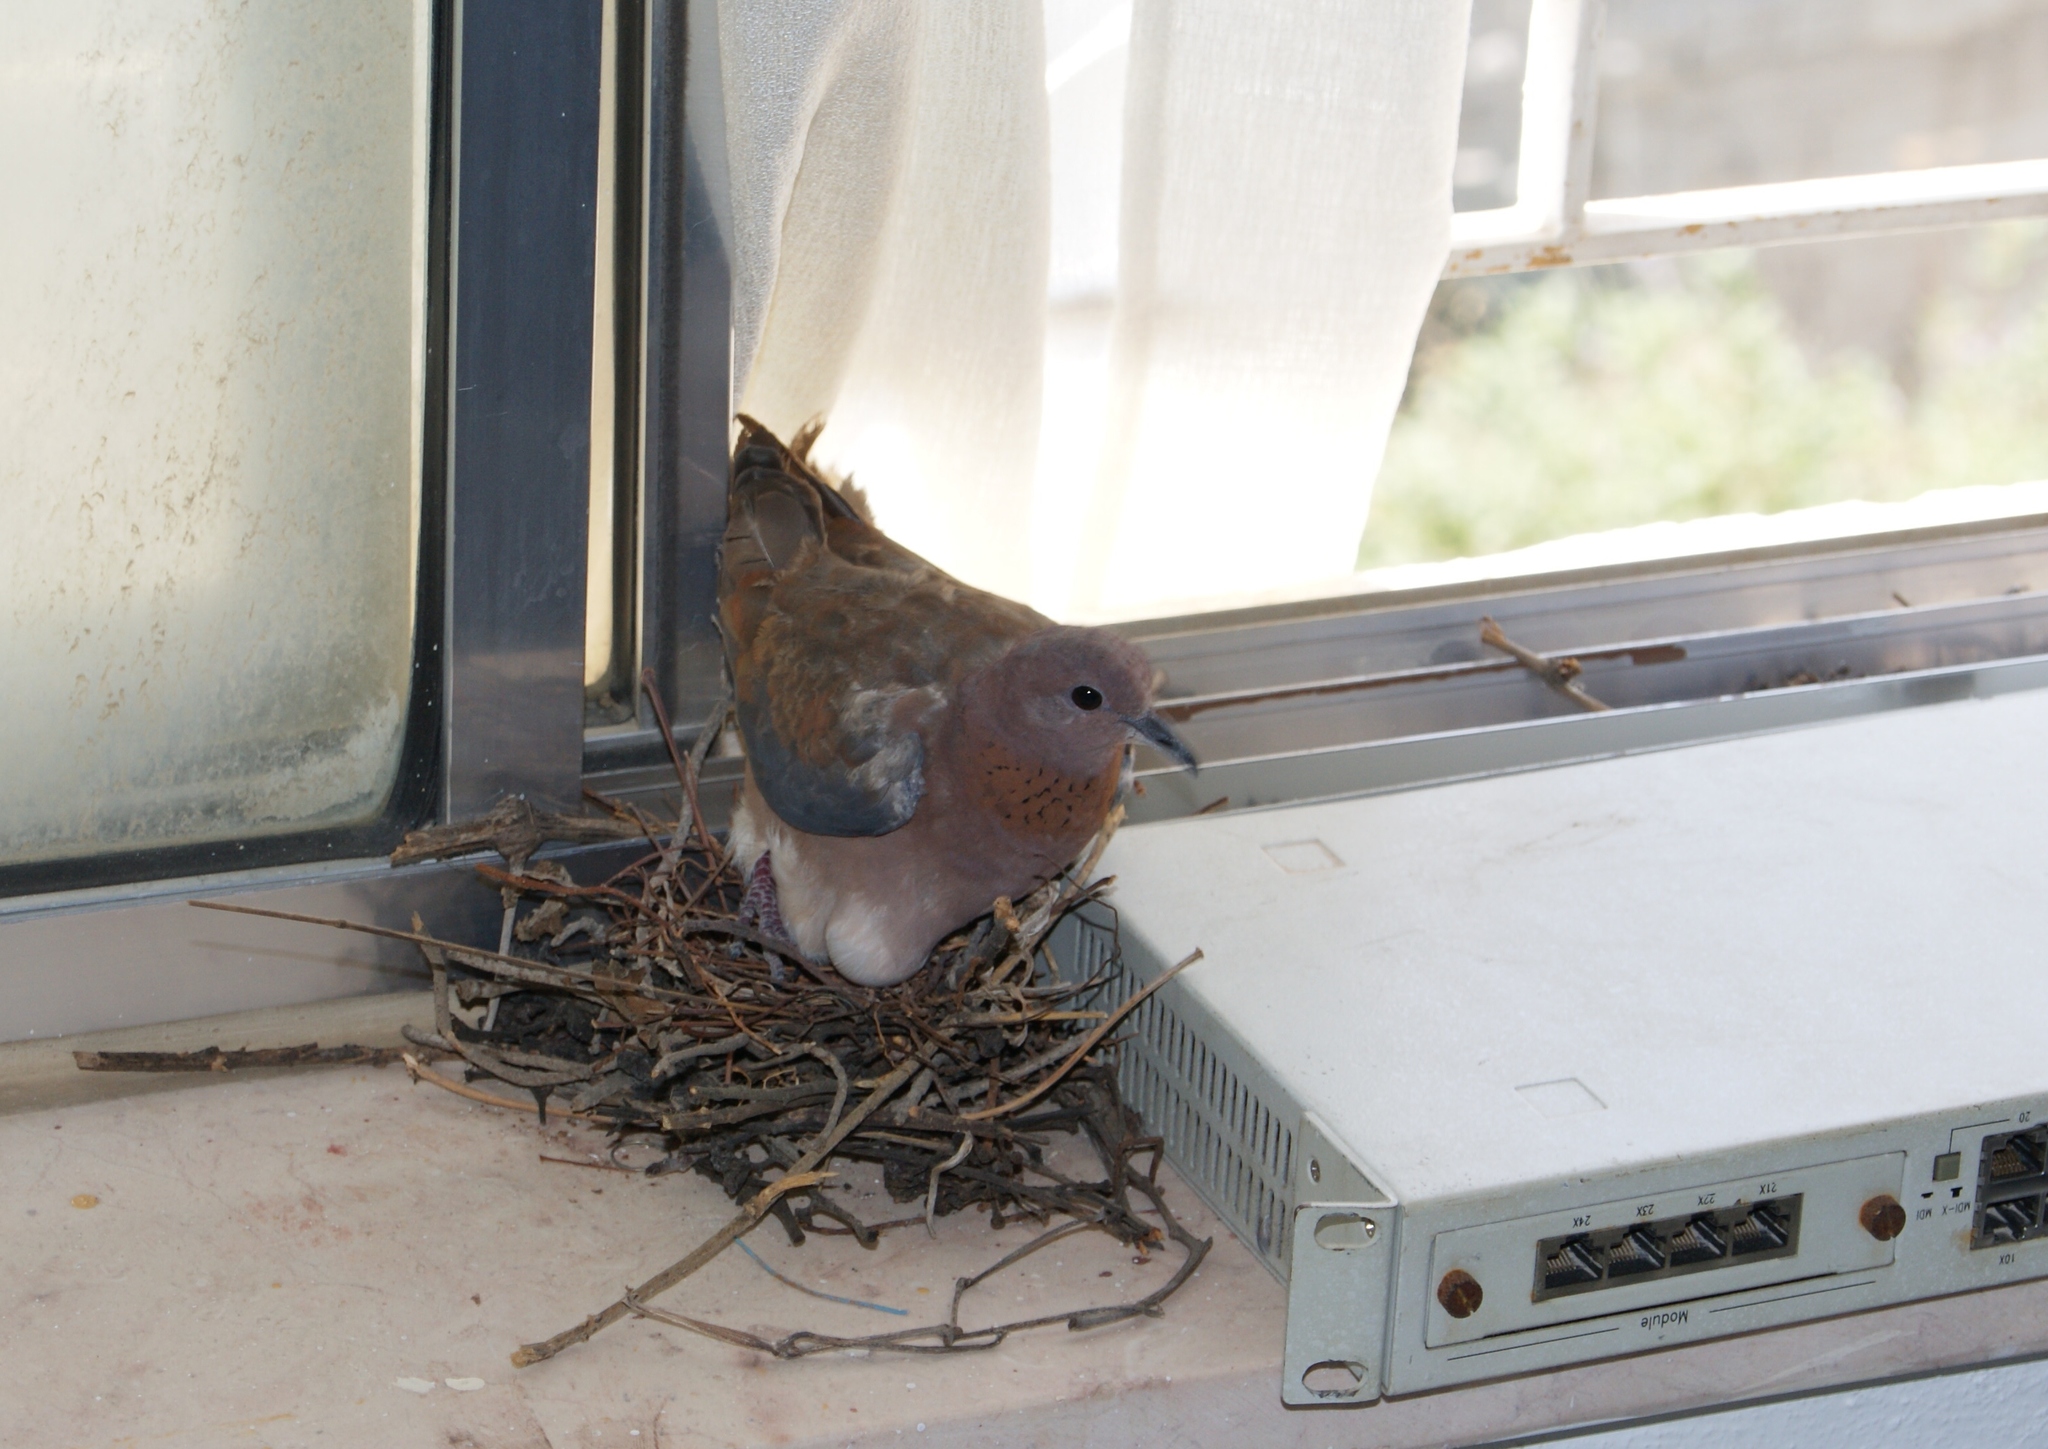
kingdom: Animalia
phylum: Chordata
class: Aves
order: Columbiformes
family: Columbidae
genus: Spilopelia
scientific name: Spilopelia senegalensis
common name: Laughing dove
